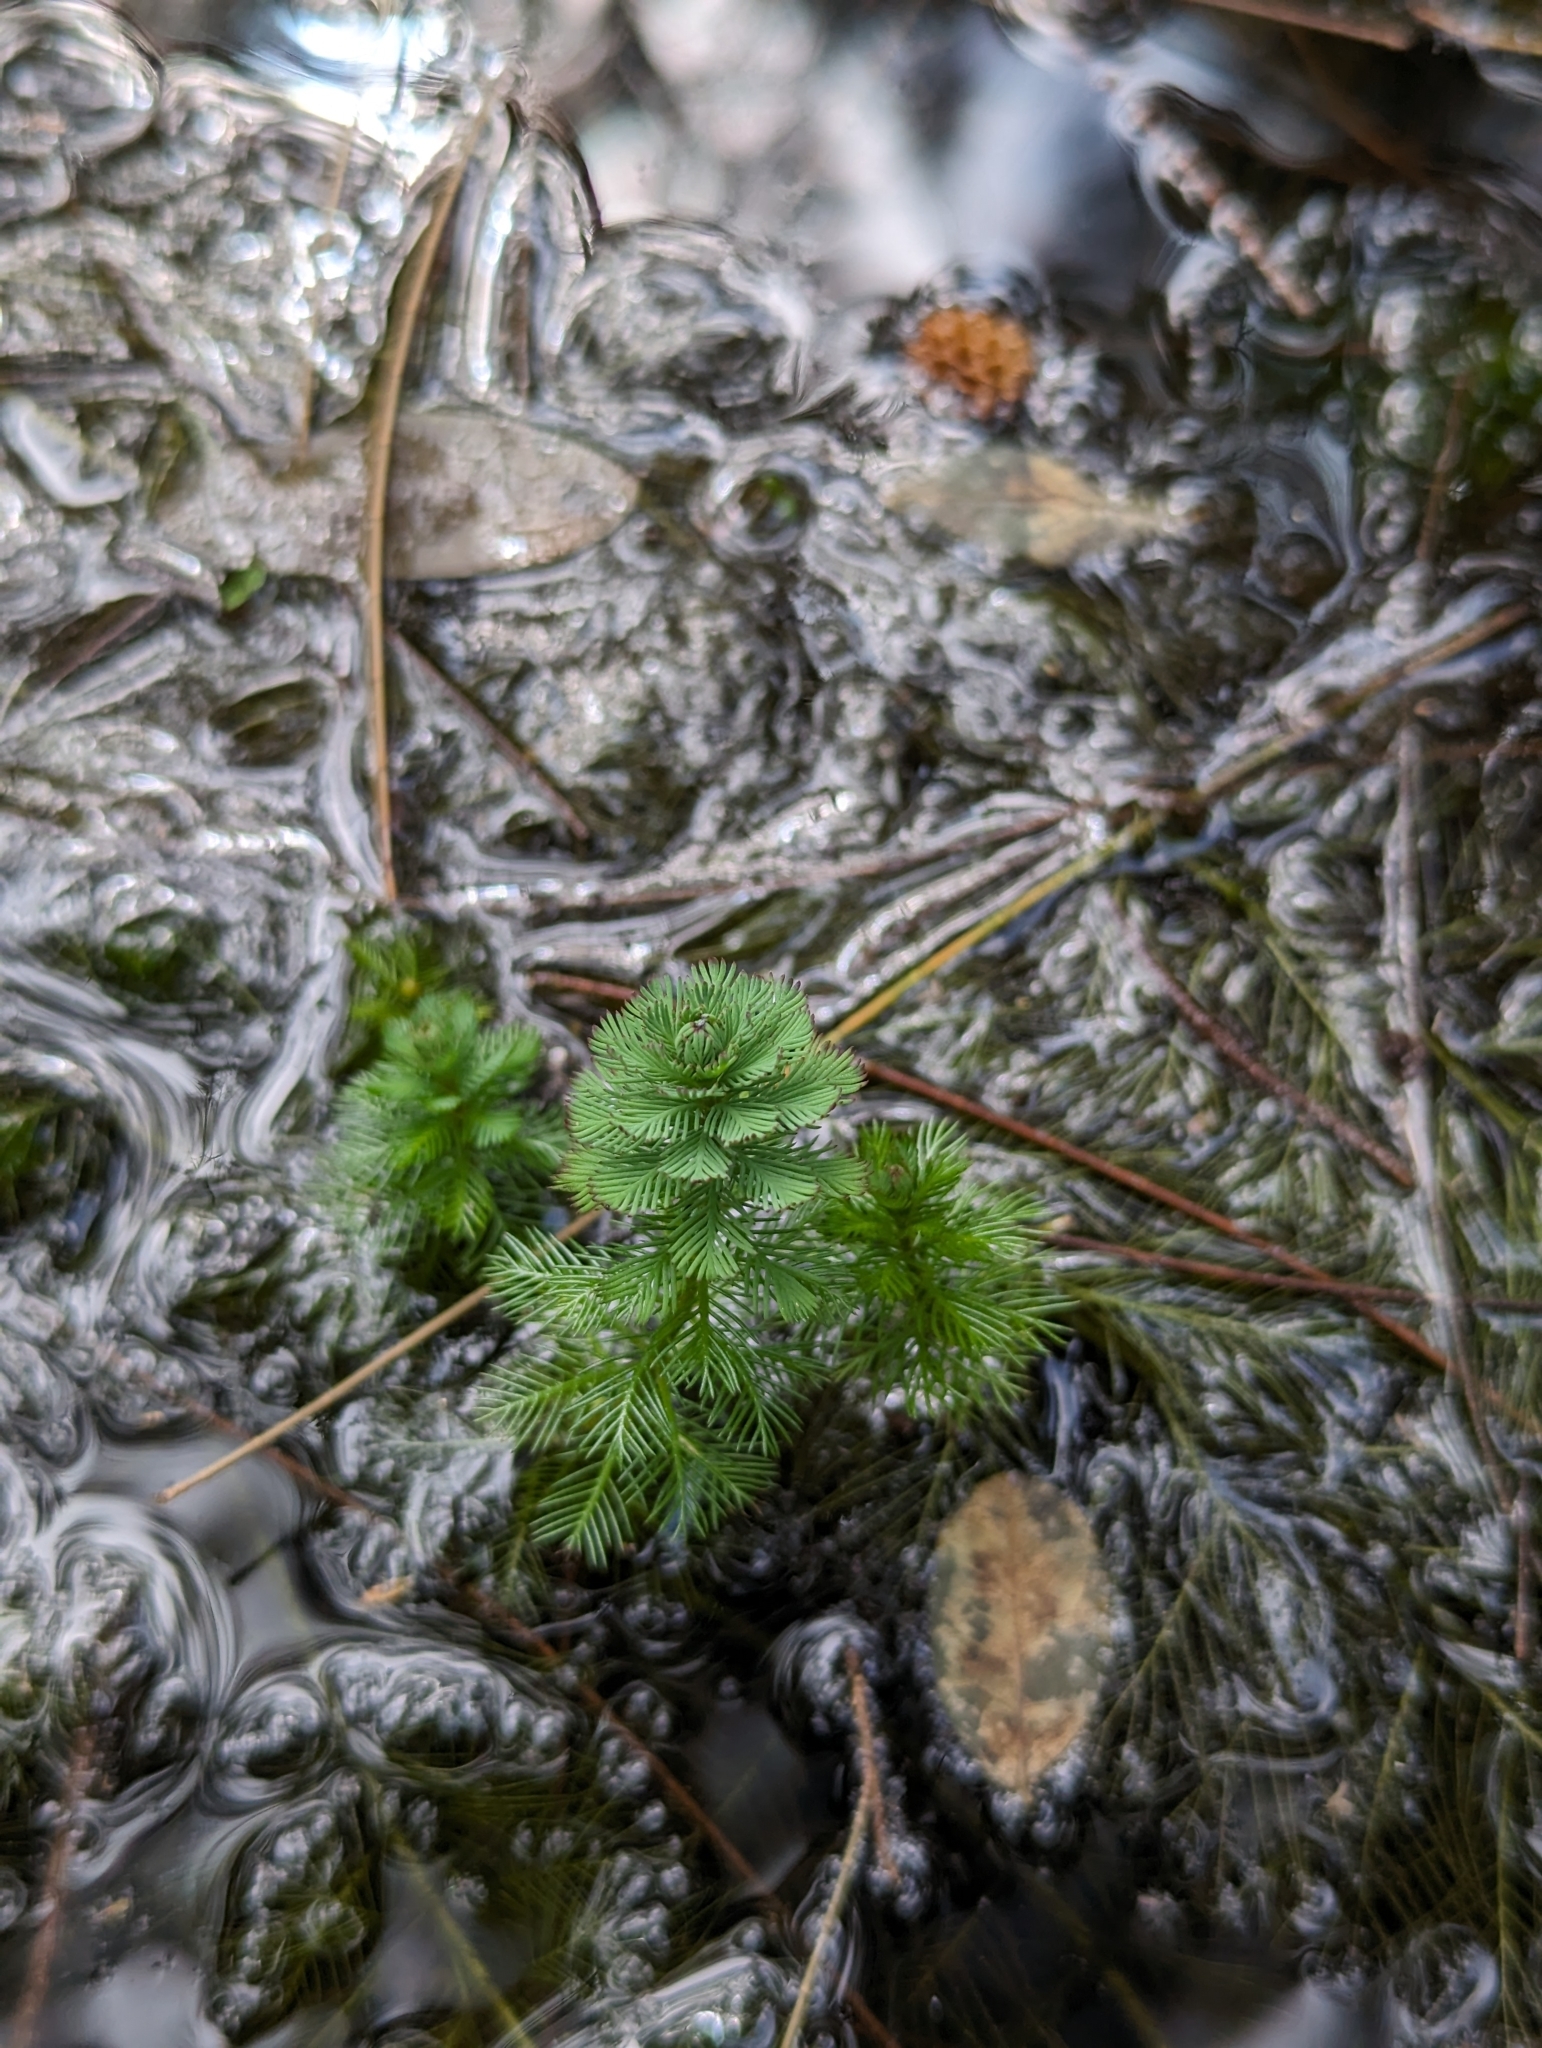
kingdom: Plantae
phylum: Tracheophyta
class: Magnoliopsida
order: Saxifragales
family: Haloragaceae
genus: Myriophyllum
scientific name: Myriophyllum aquaticum
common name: Parrot's feather
